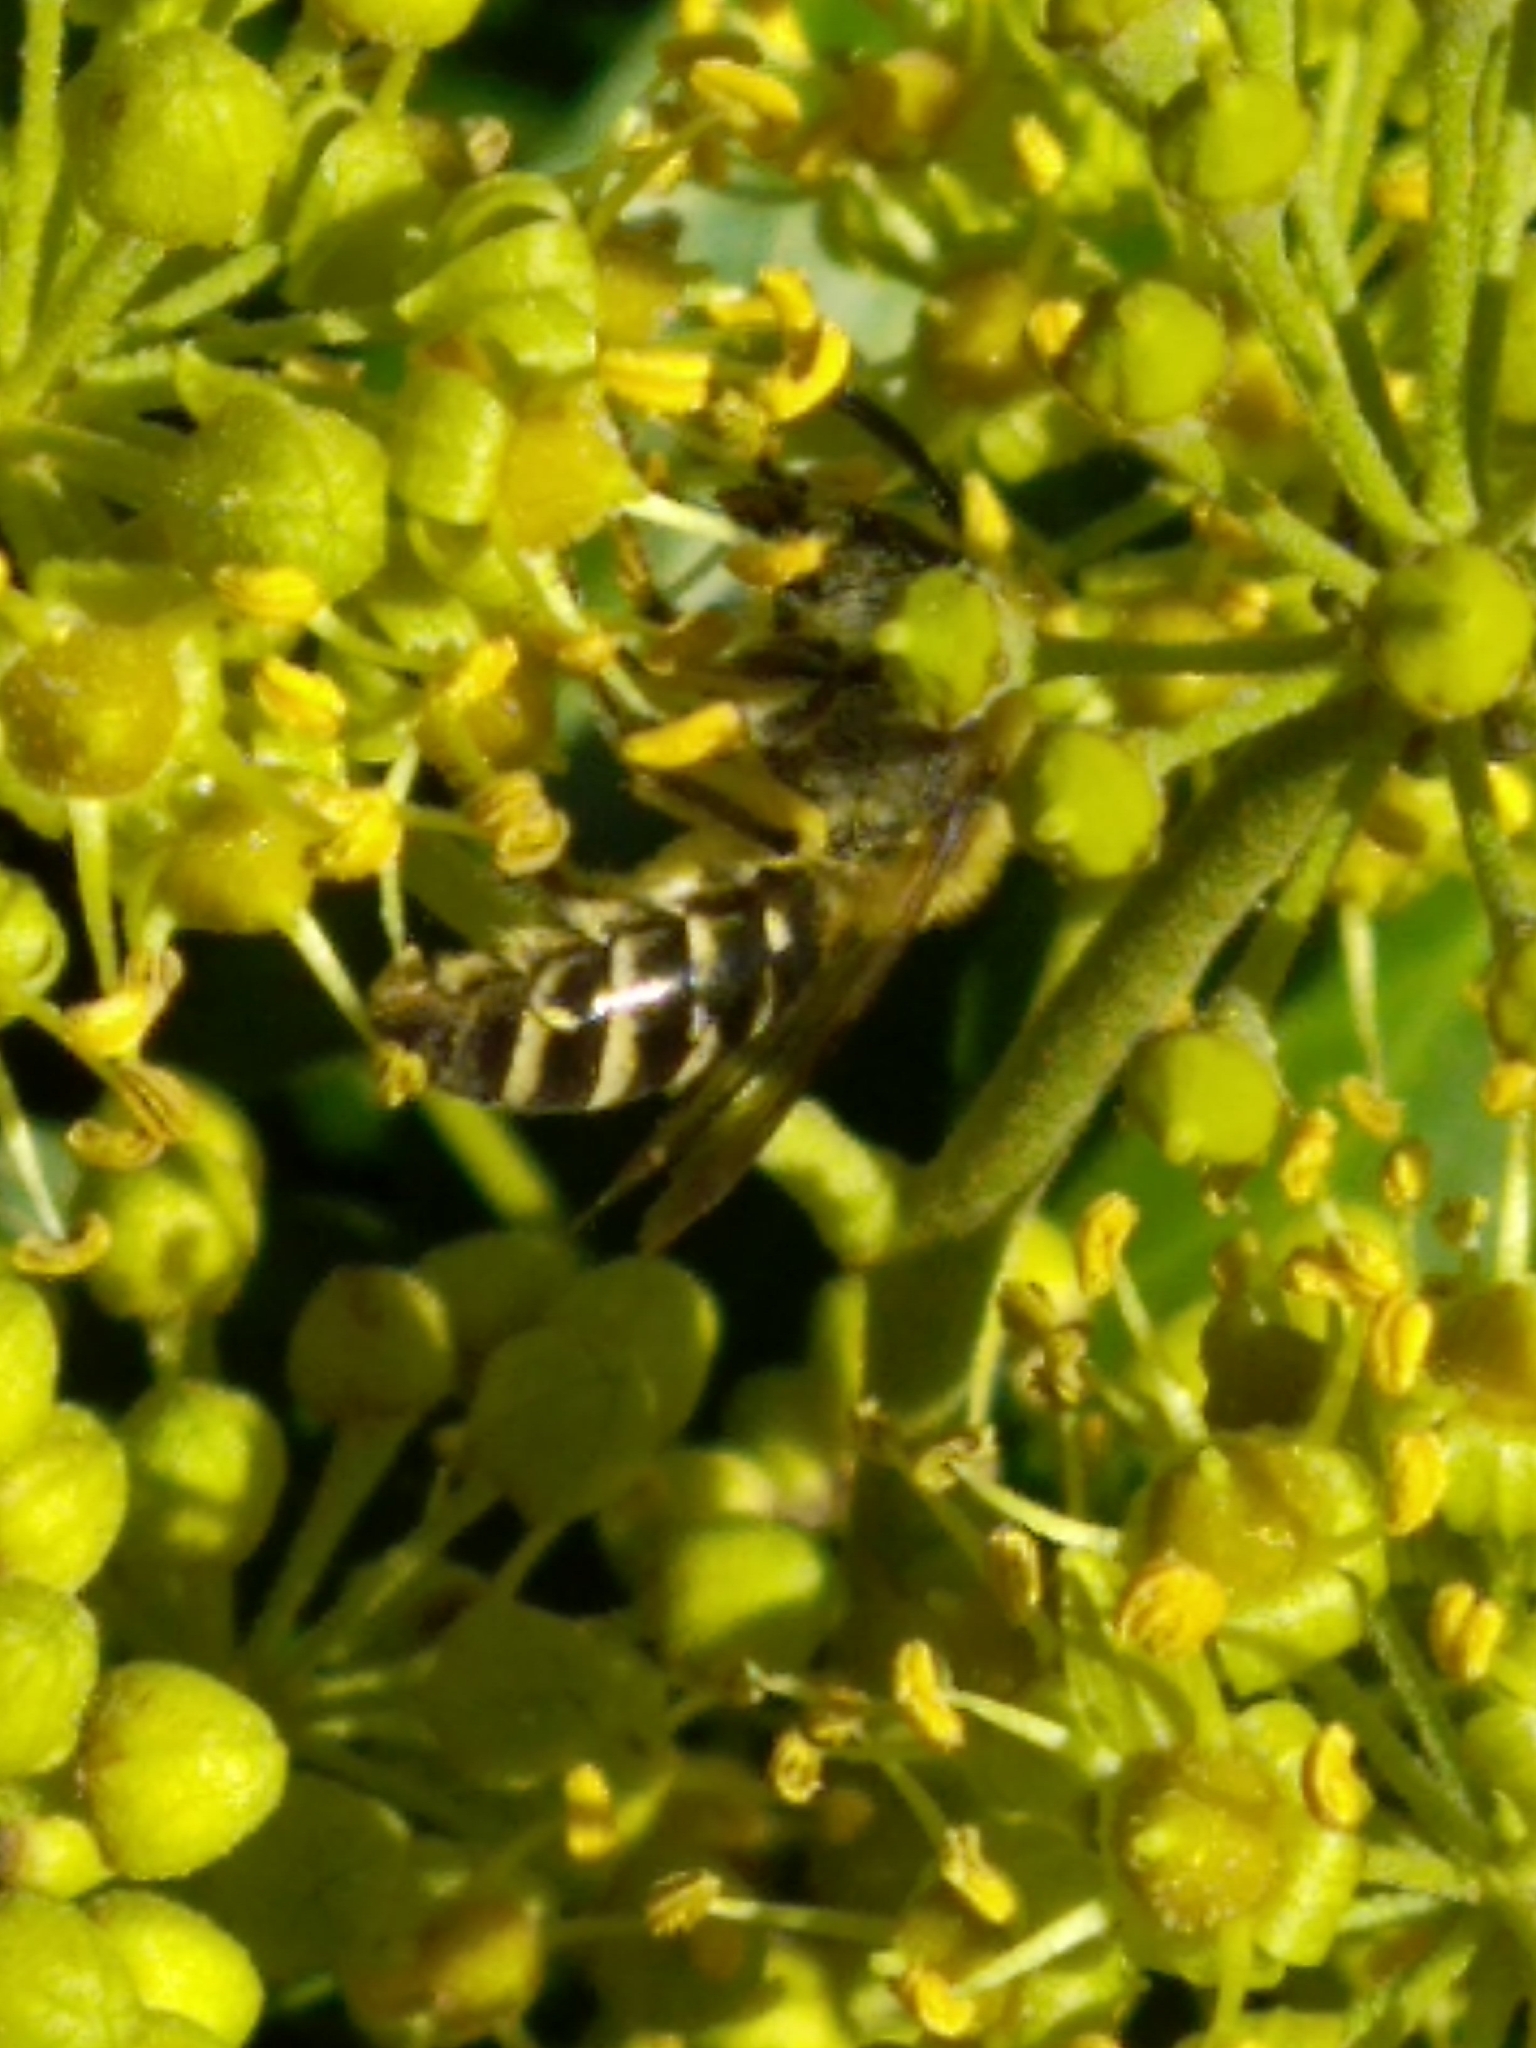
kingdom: Animalia
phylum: Arthropoda
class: Insecta
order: Hymenoptera
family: Colletidae
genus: Colletes
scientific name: Colletes hederae
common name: Ivy bee
